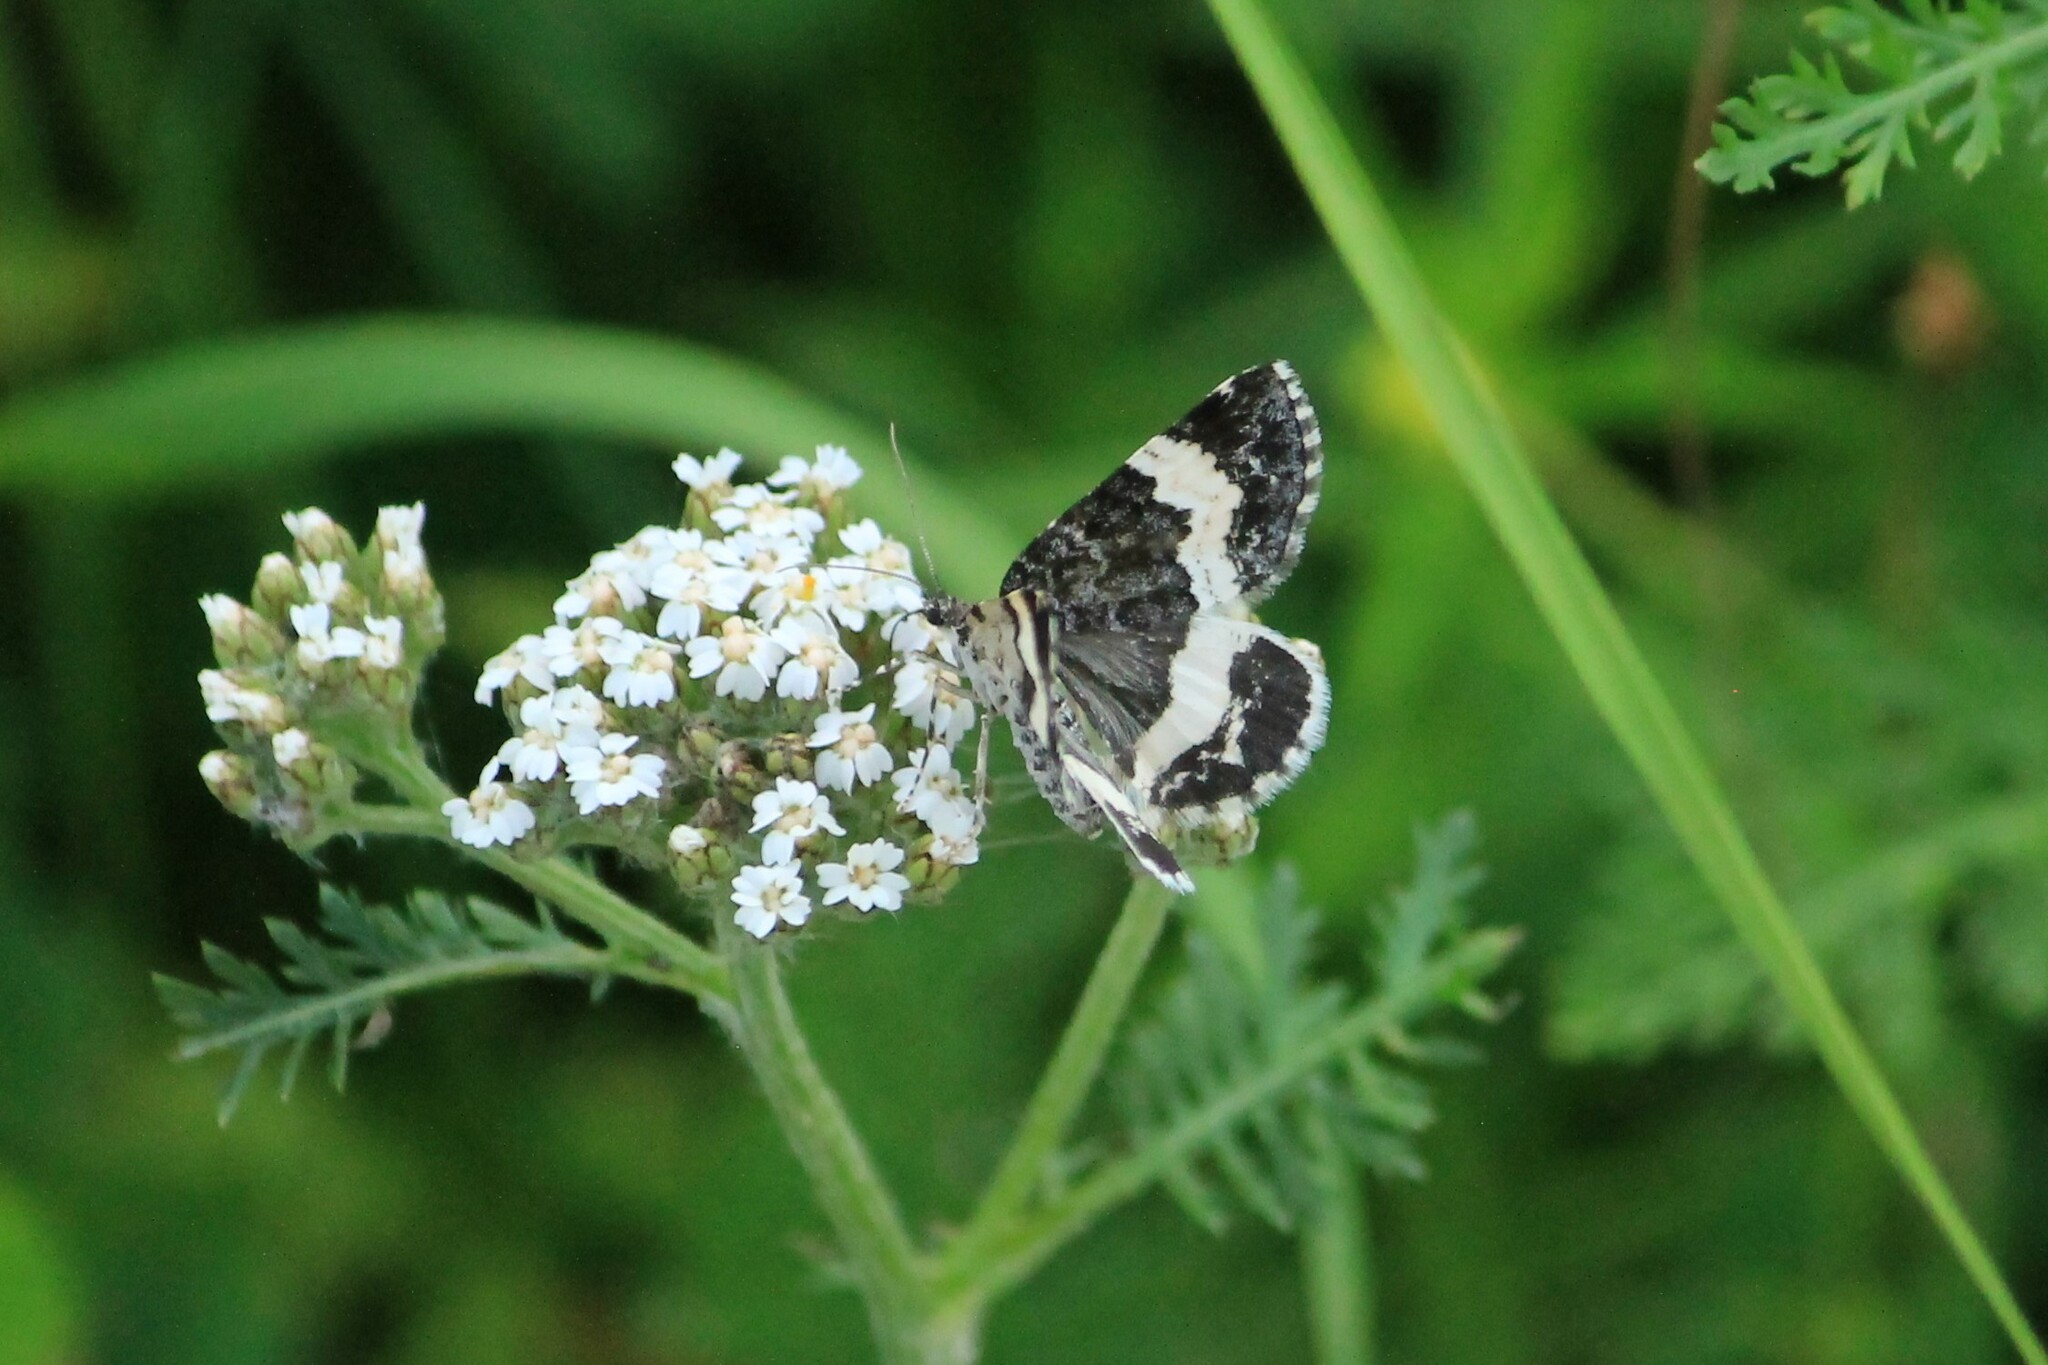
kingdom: Animalia
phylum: Arthropoda
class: Insecta
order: Lepidoptera
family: Geometridae
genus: Spargania
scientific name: Spargania luctuata
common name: White-banded carpet
